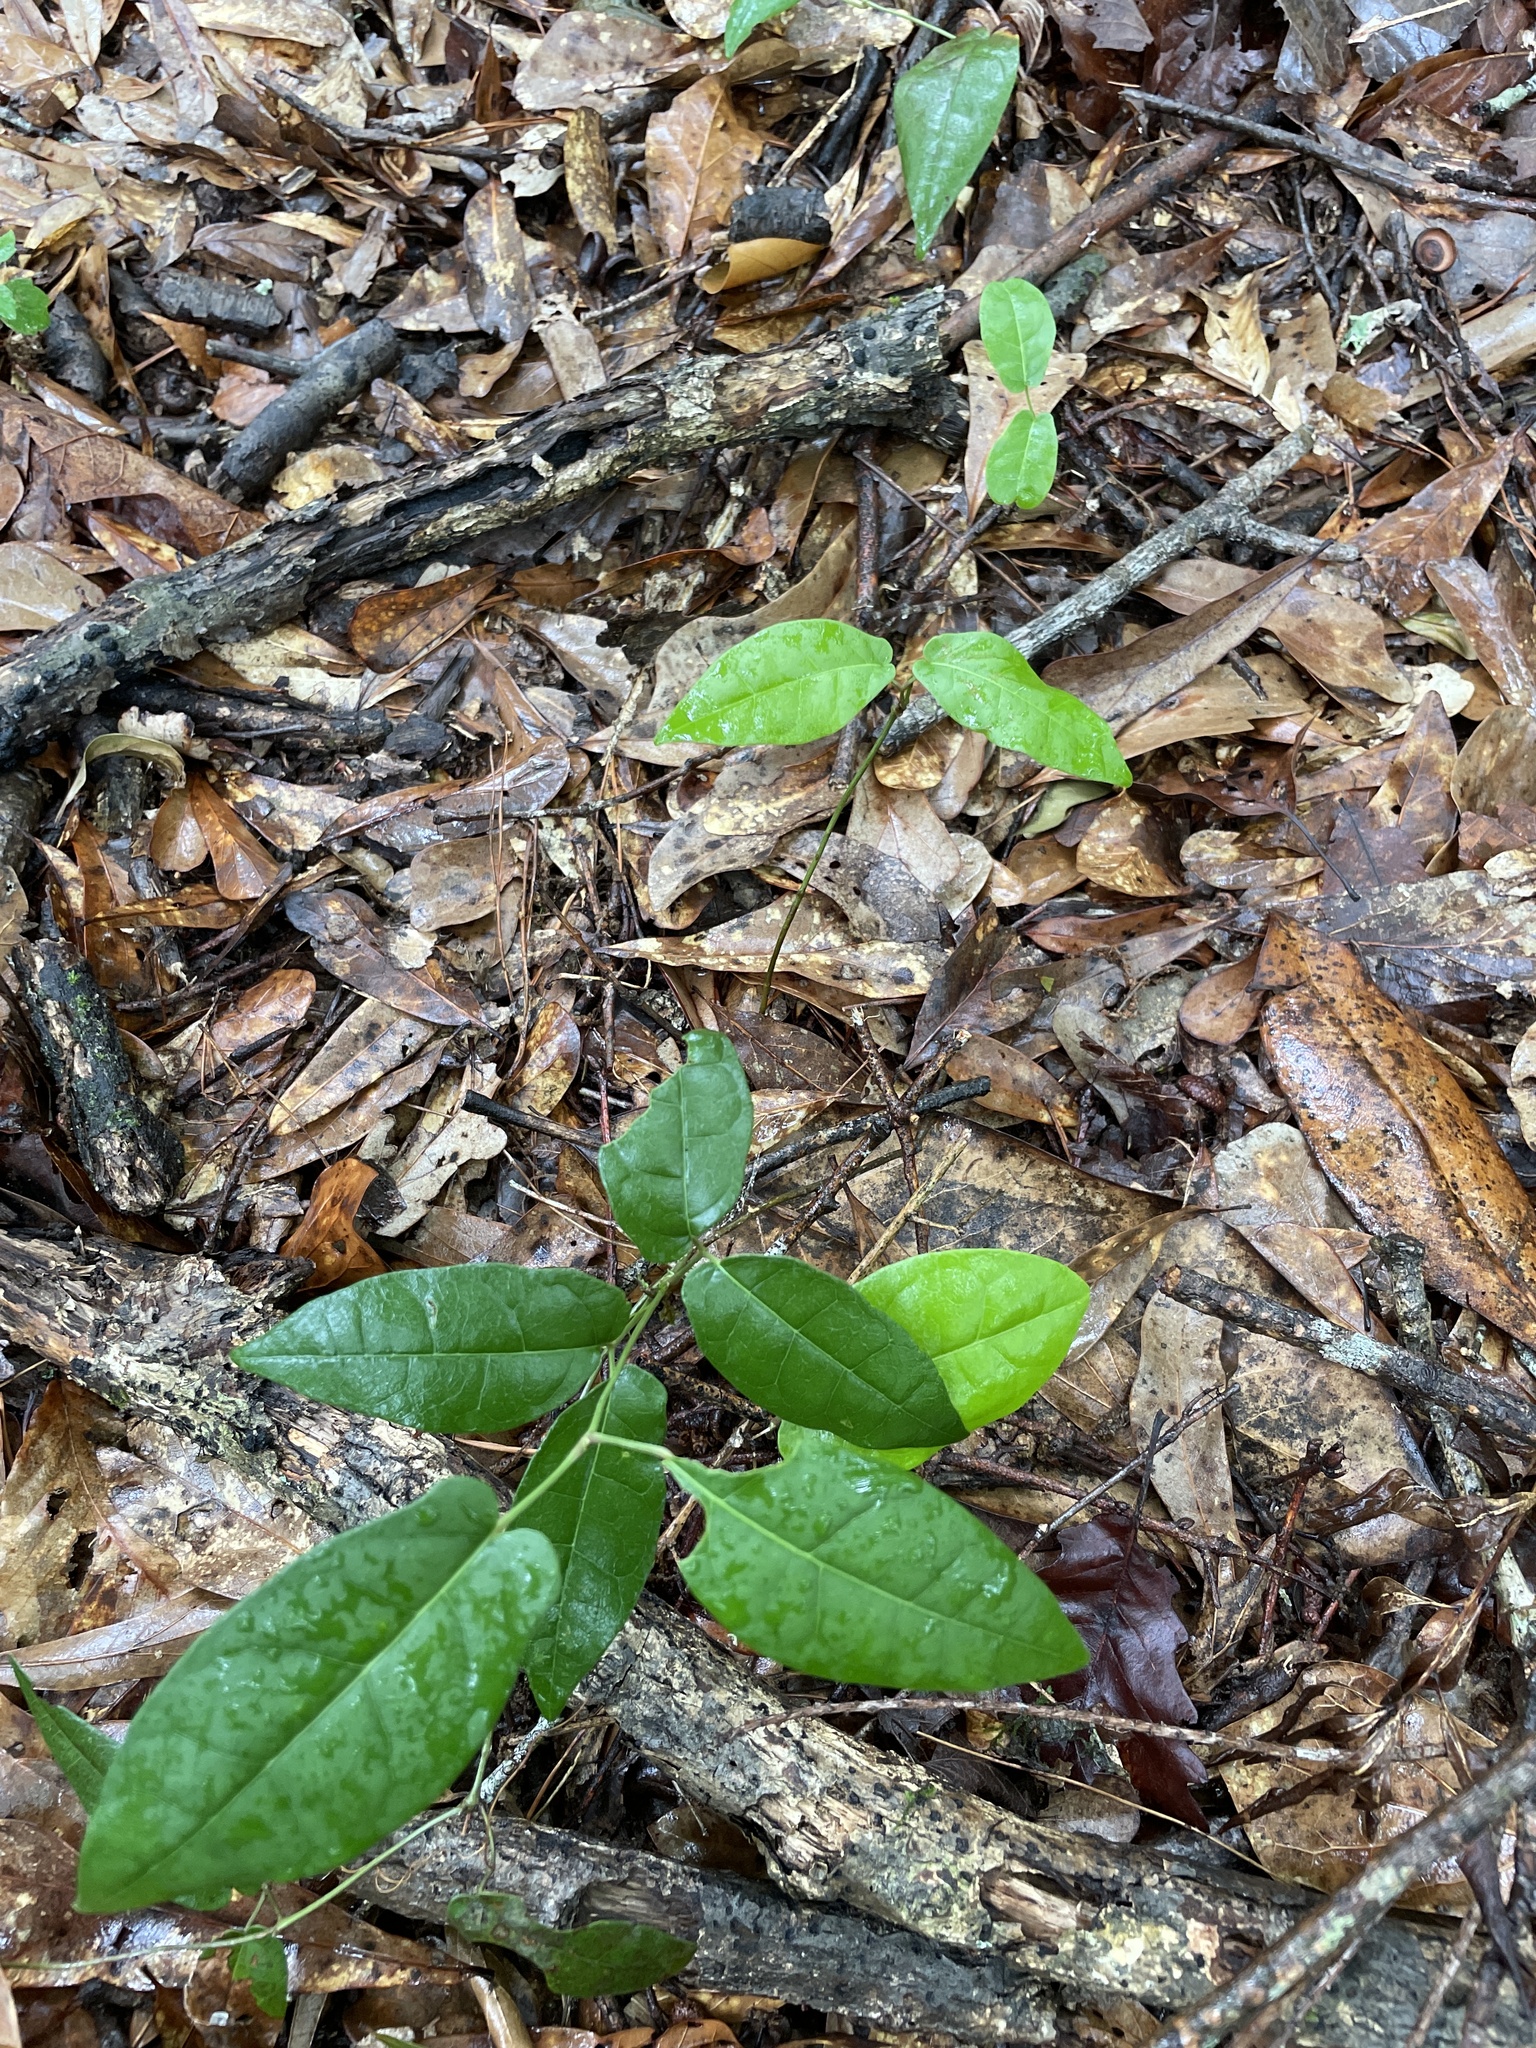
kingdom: Plantae
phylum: Tracheophyta
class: Magnoliopsida
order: Lamiales
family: Bignoniaceae
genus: Bignonia
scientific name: Bignonia capreolata
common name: Crossvine
